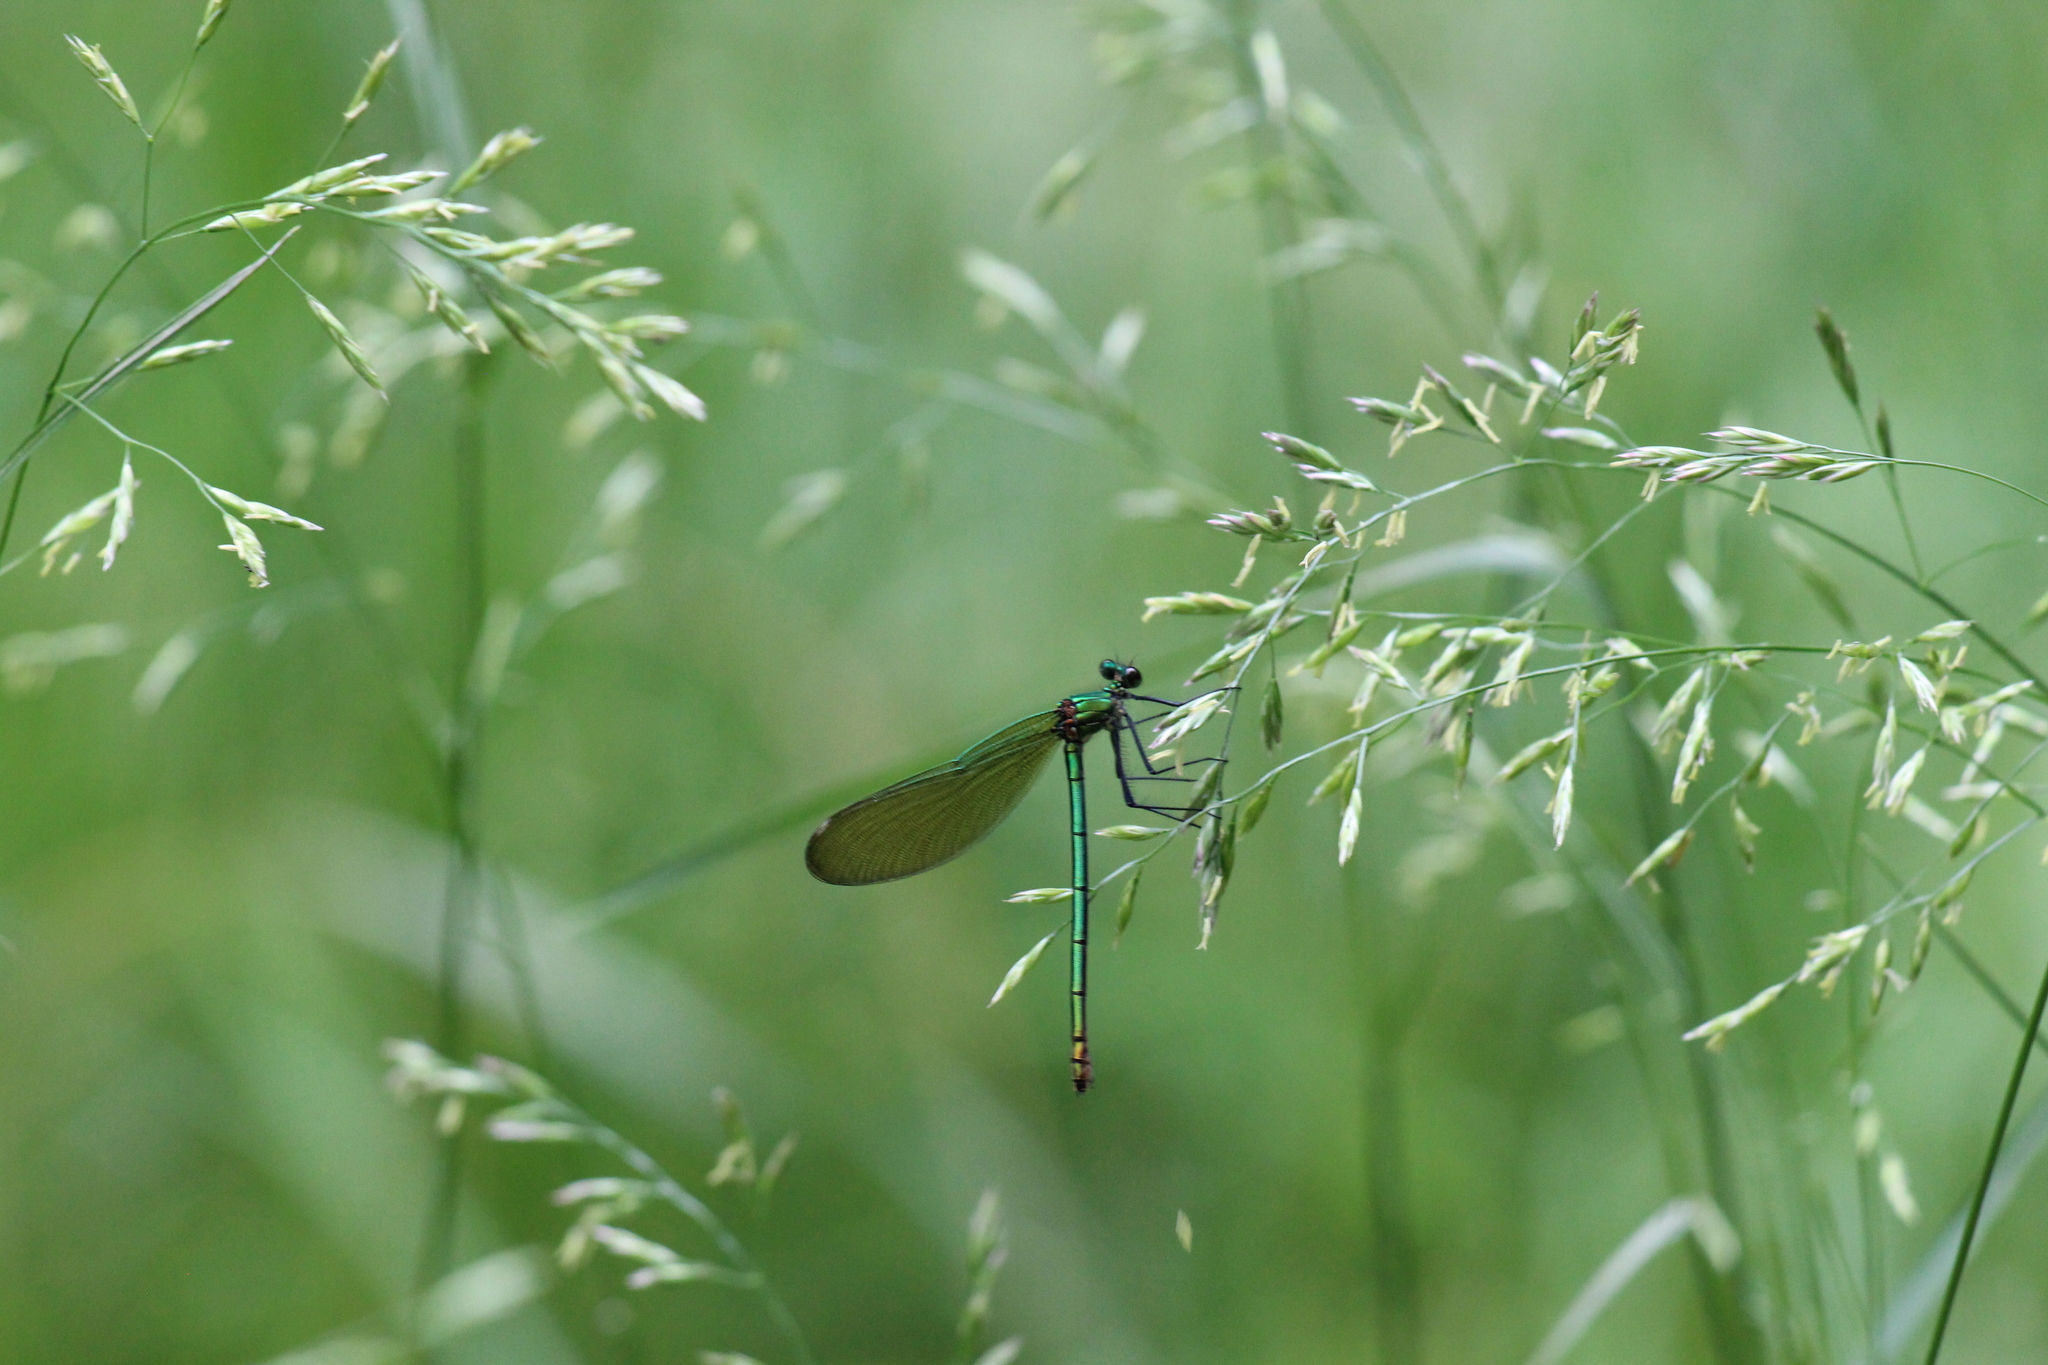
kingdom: Animalia
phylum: Arthropoda
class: Insecta
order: Odonata
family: Calopterygidae
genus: Calopteryx
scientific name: Calopteryx xanthostoma
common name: Western demoiselle
